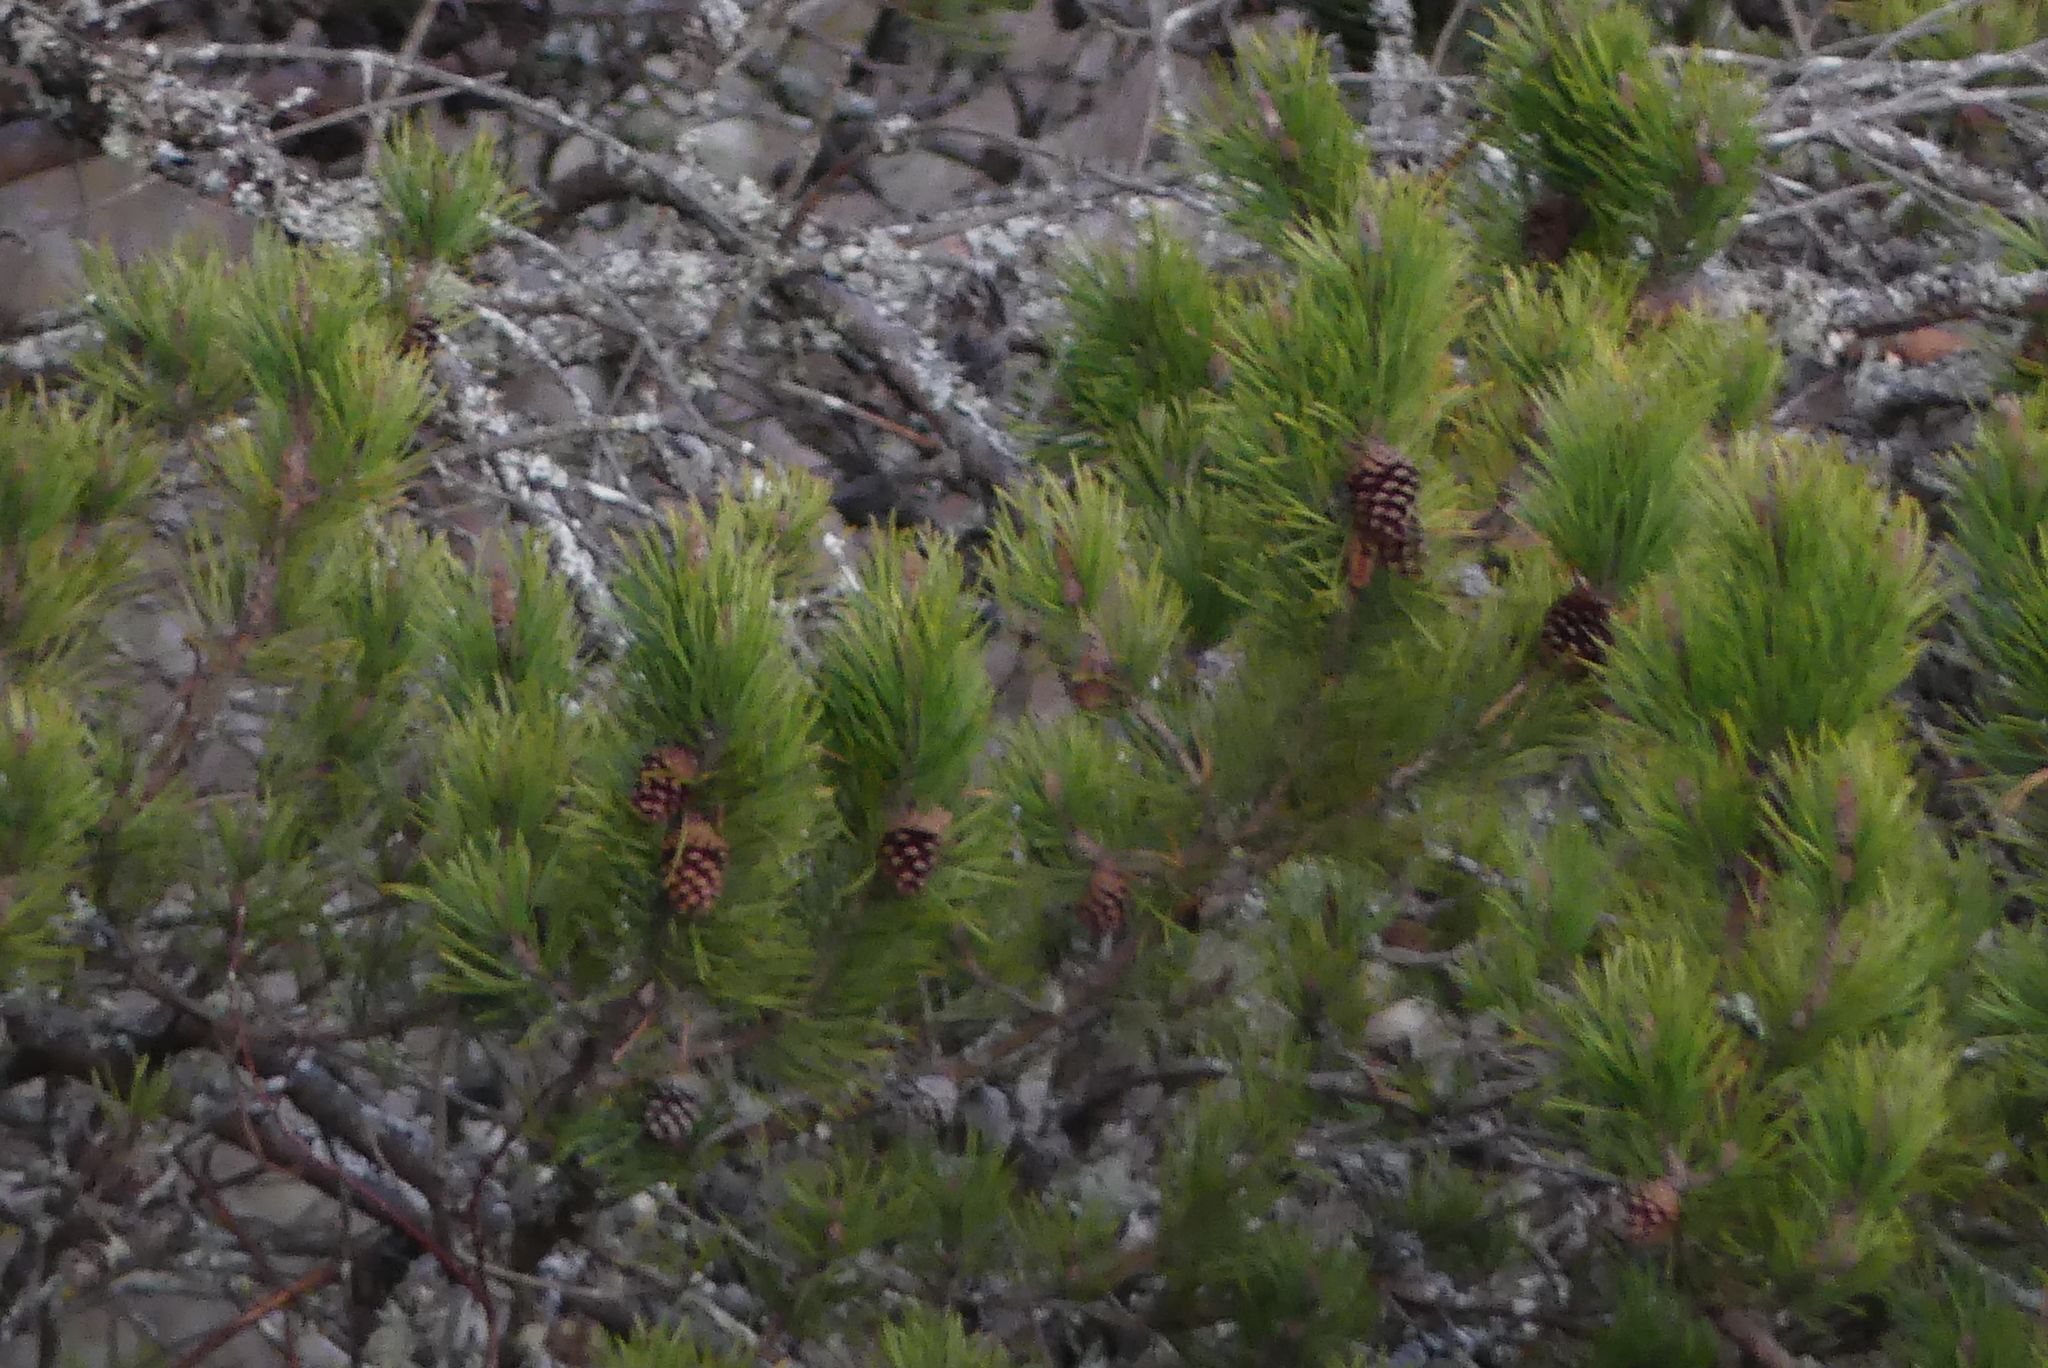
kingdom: Plantae
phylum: Tracheophyta
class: Pinopsida
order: Pinales
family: Pinaceae
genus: Pinus
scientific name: Pinus contorta
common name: Lodgepole pine
